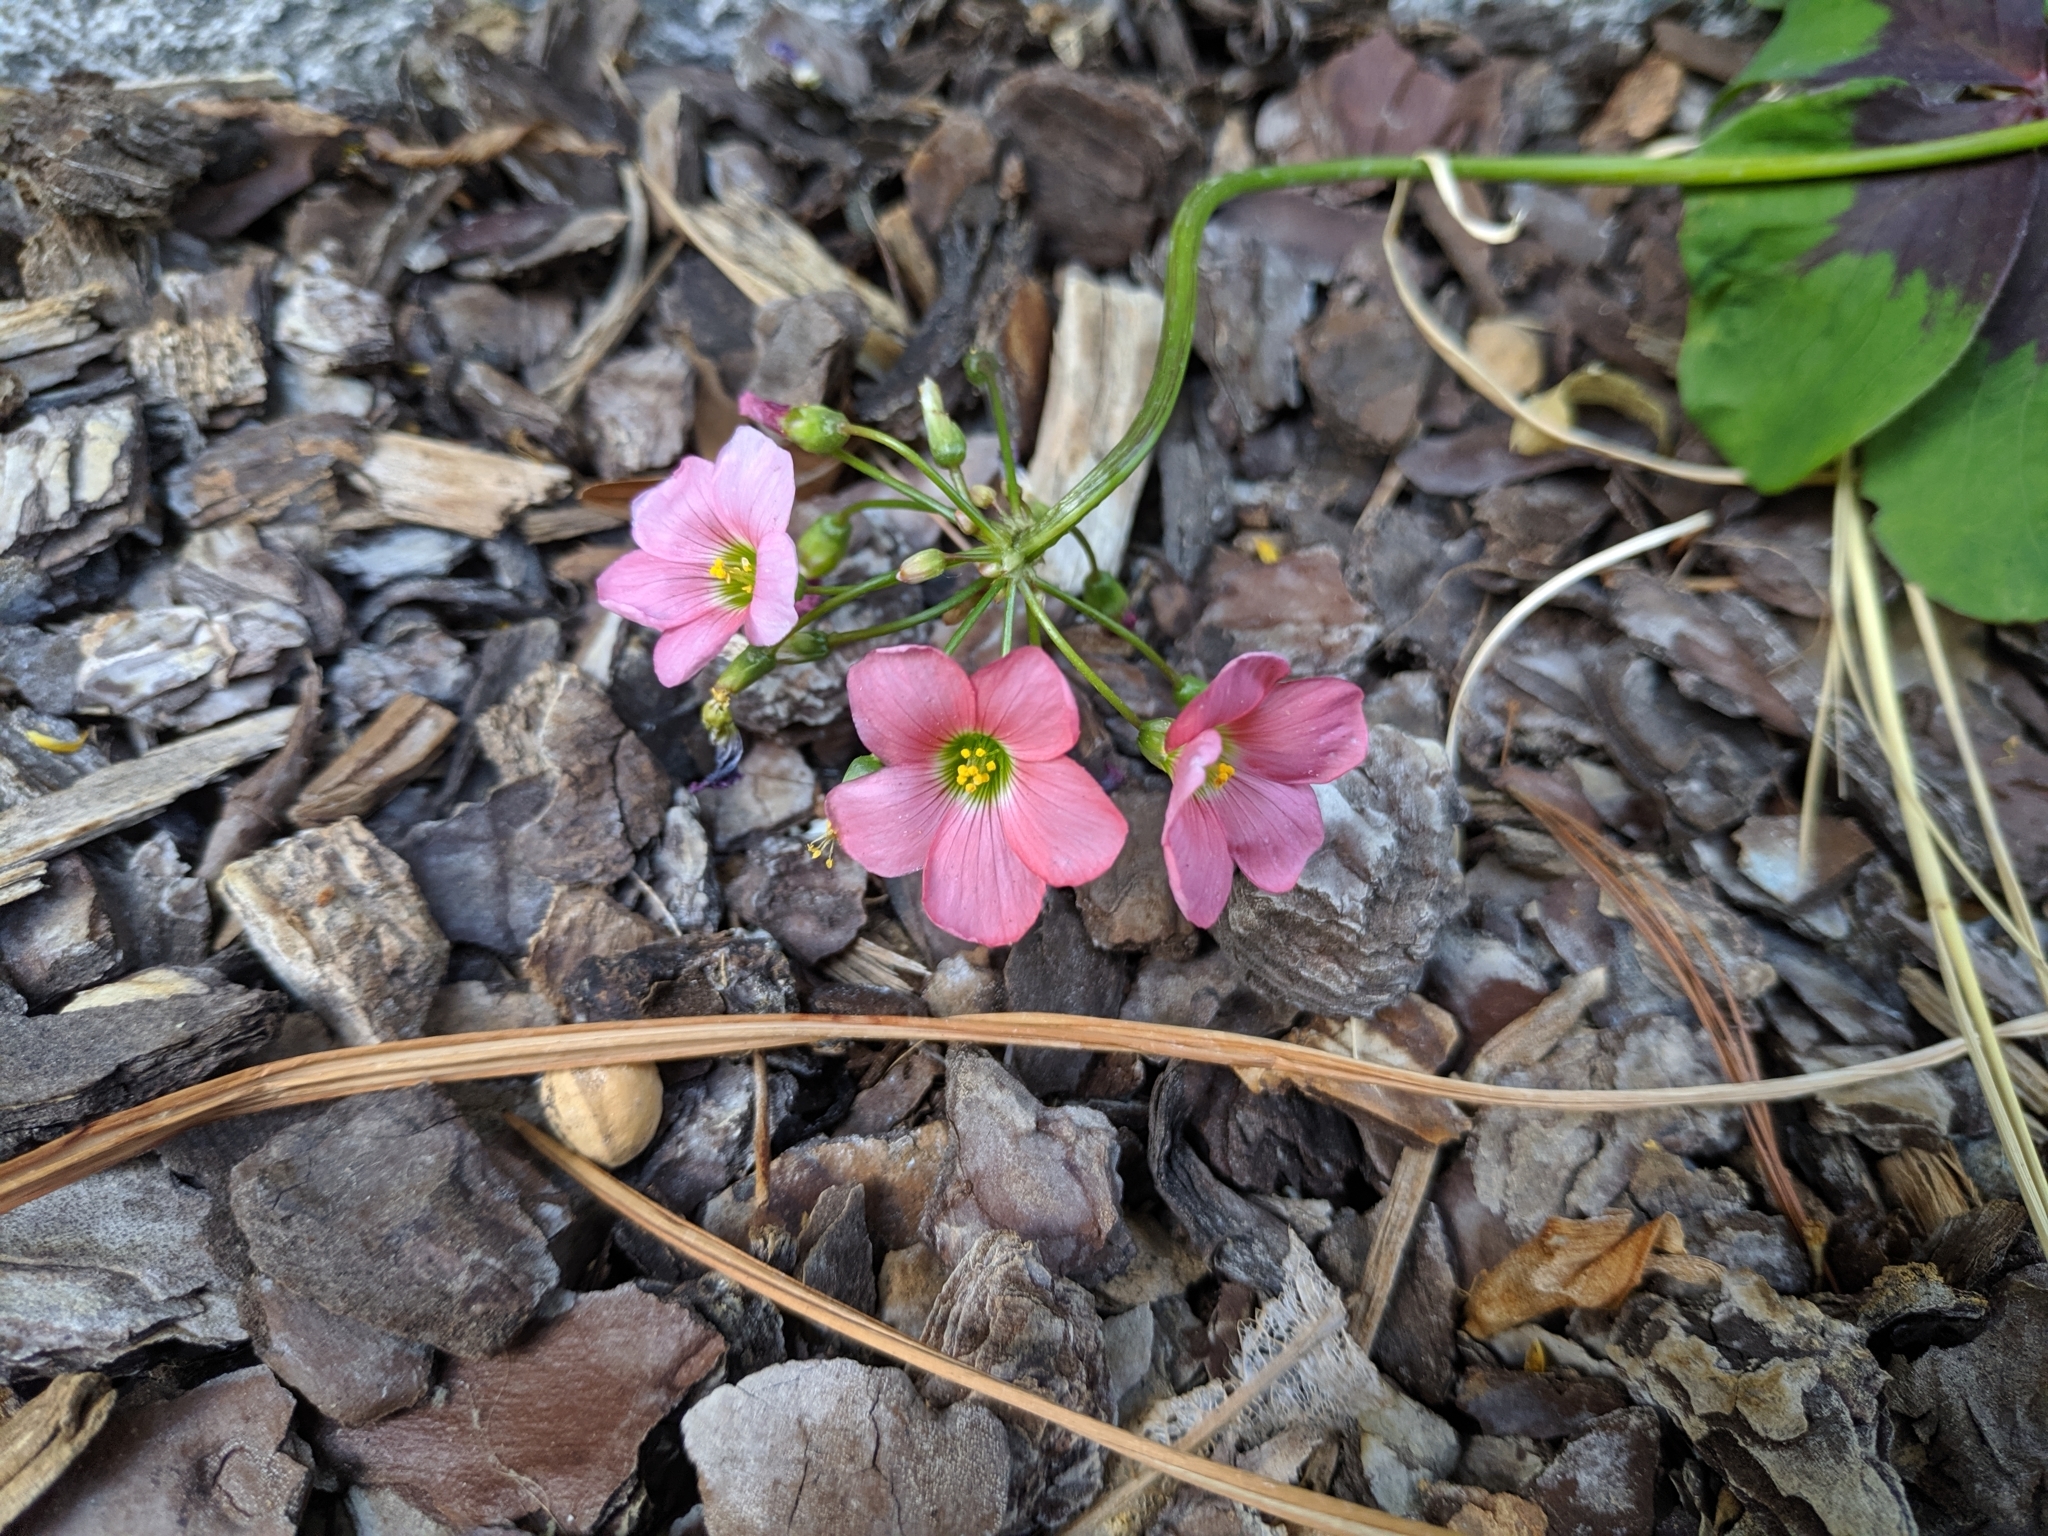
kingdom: Plantae
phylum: Tracheophyta
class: Magnoliopsida
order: Oxalidales
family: Oxalidaceae
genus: Oxalis
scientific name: Oxalis tetraphylla
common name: Four-leaved pink-sorrel
